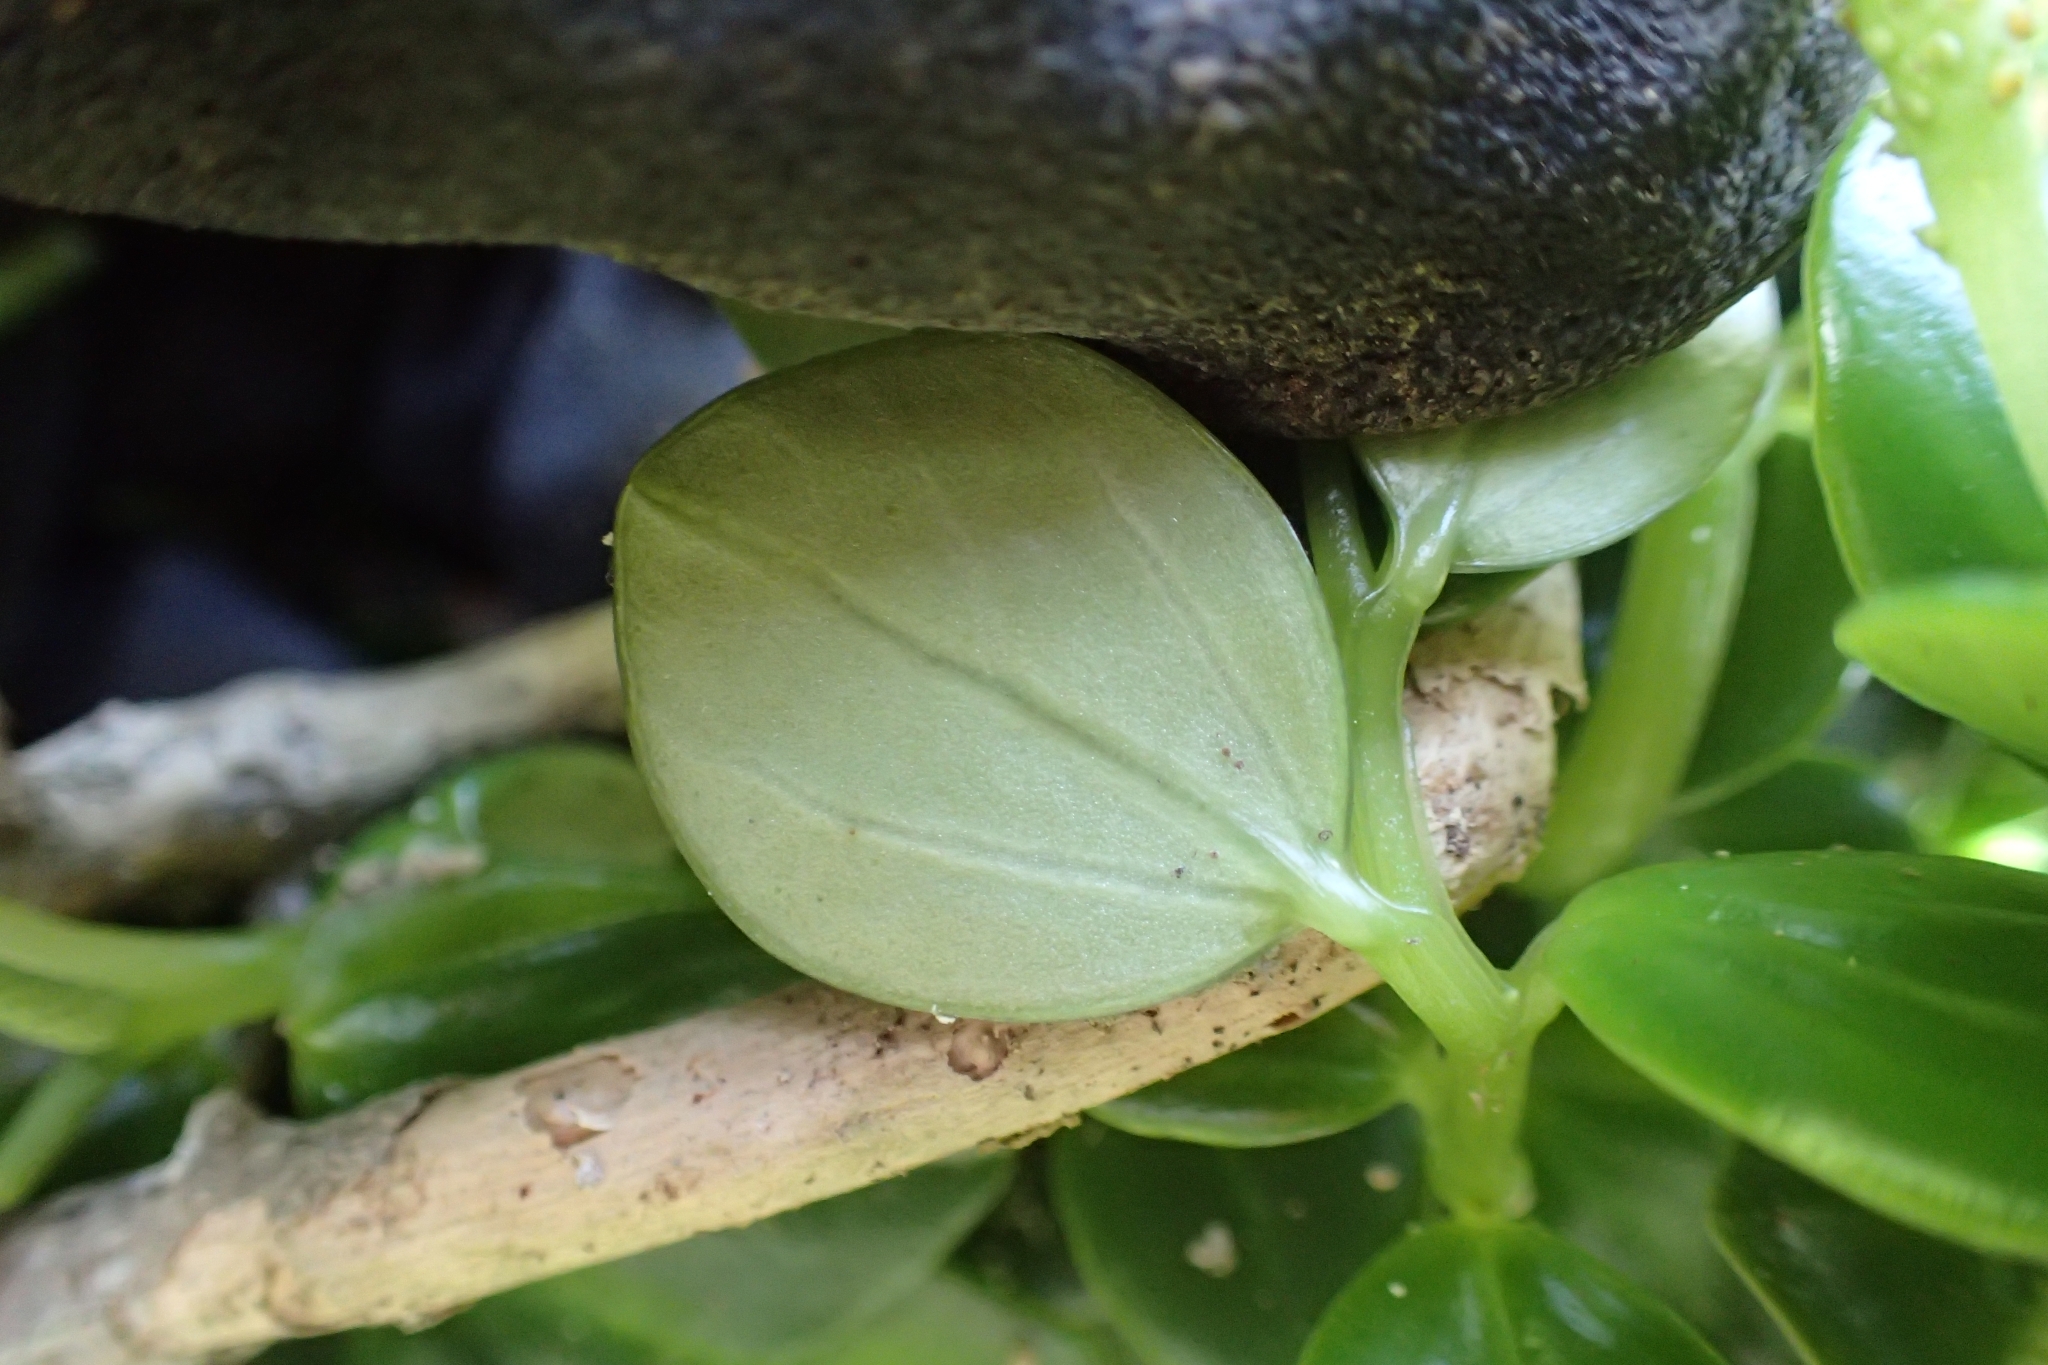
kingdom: Plantae
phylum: Tracheophyta
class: Magnoliopsida
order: Piperales
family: Piperaceae
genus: Peperomia
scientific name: Peperomia urvilleana
